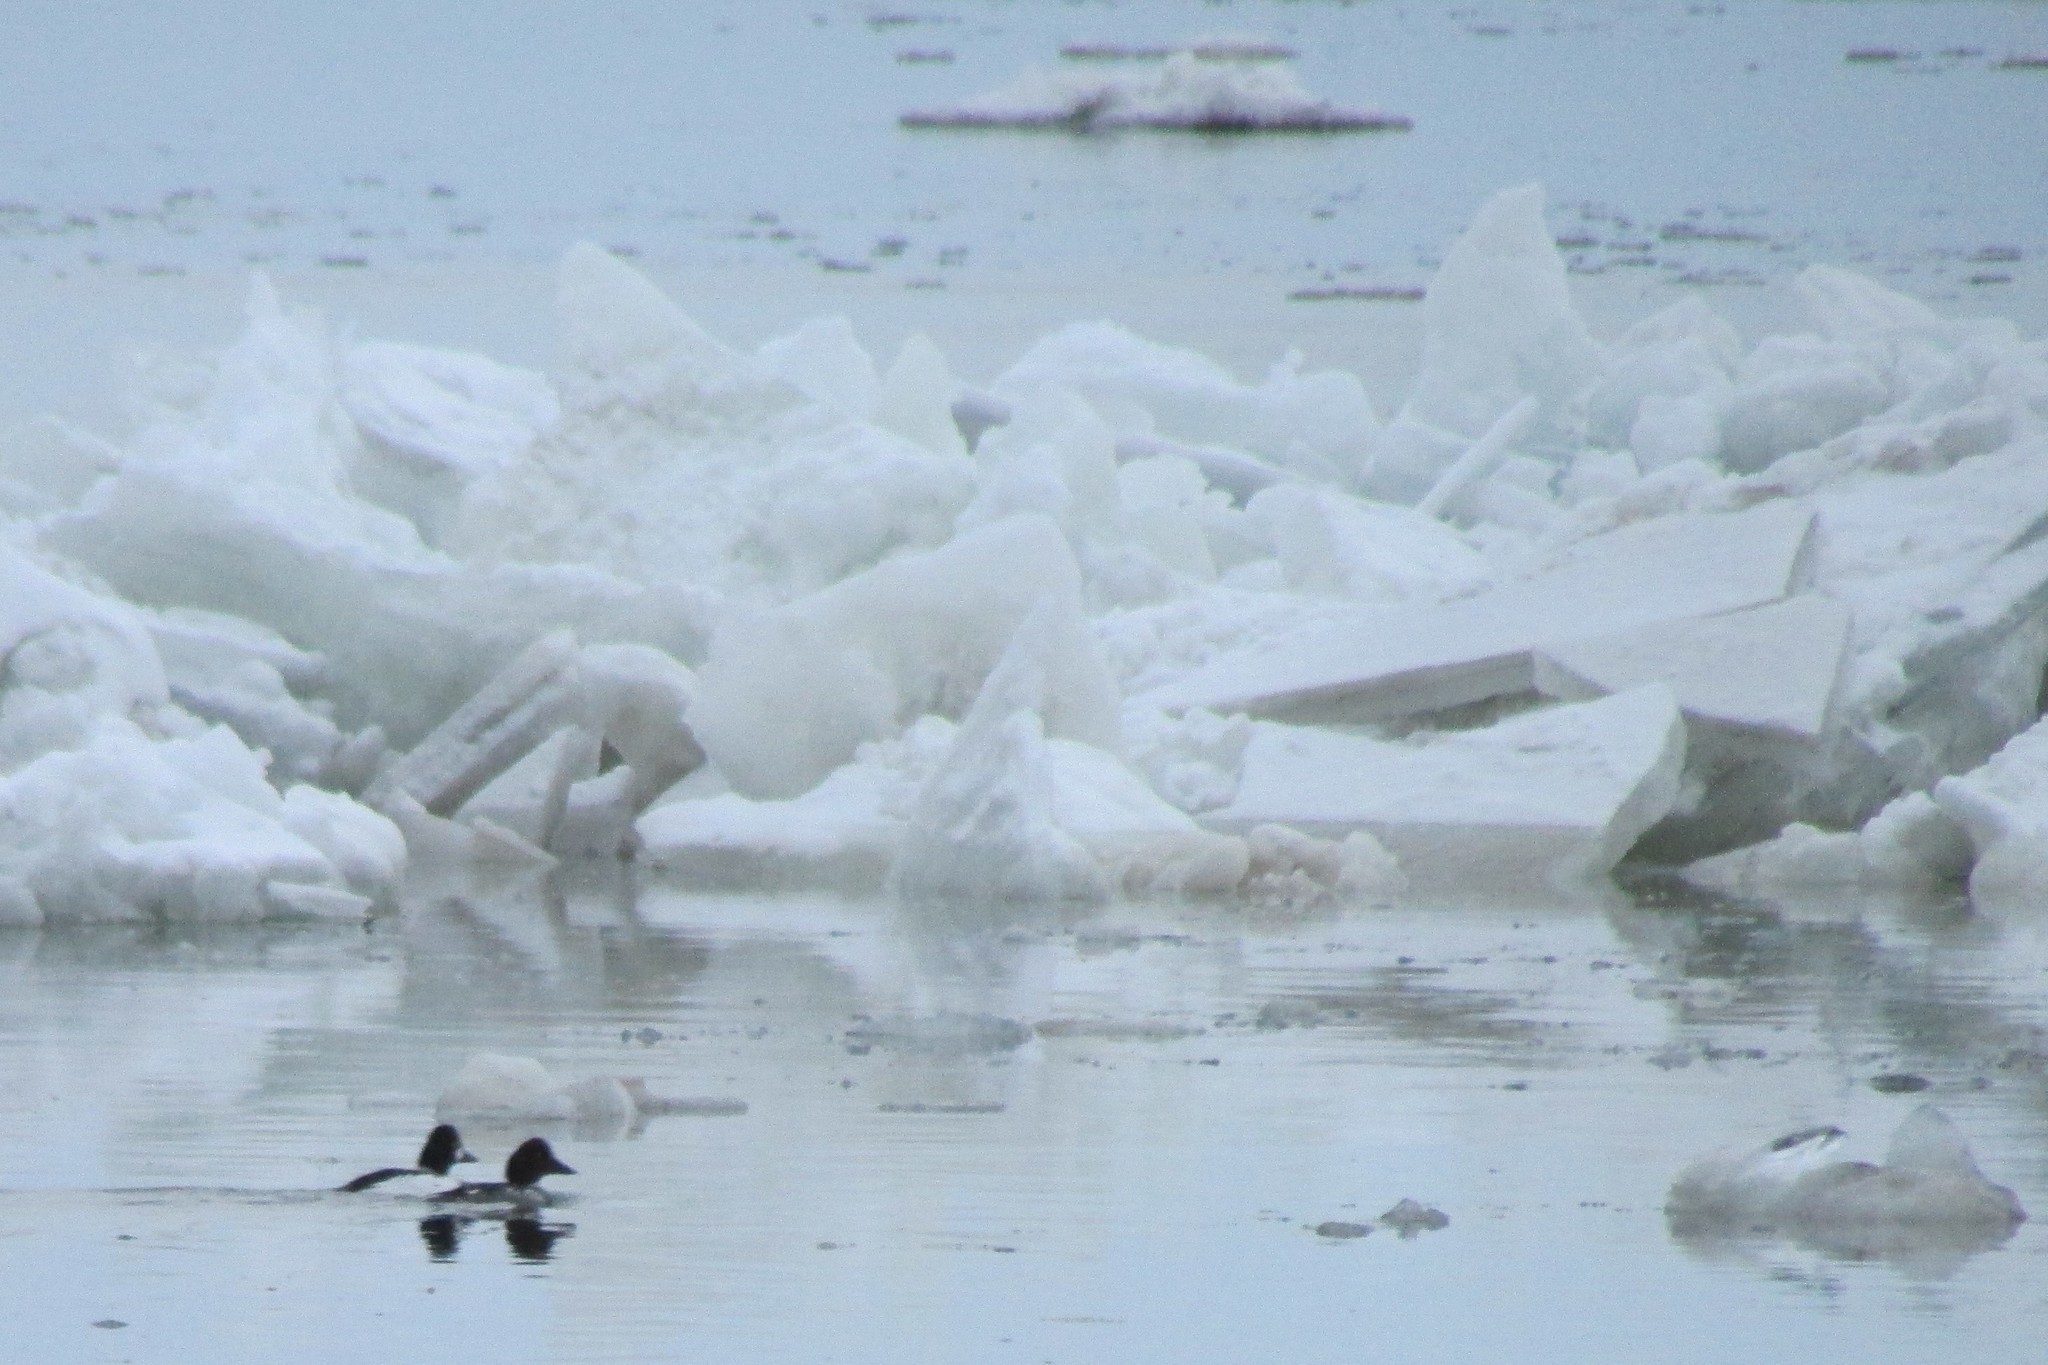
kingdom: Animalia
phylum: Chordata
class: Aves
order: Anseriformes
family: Anatidae
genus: Bucephala
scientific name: Bucephala clangula
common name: Common goldeneye
